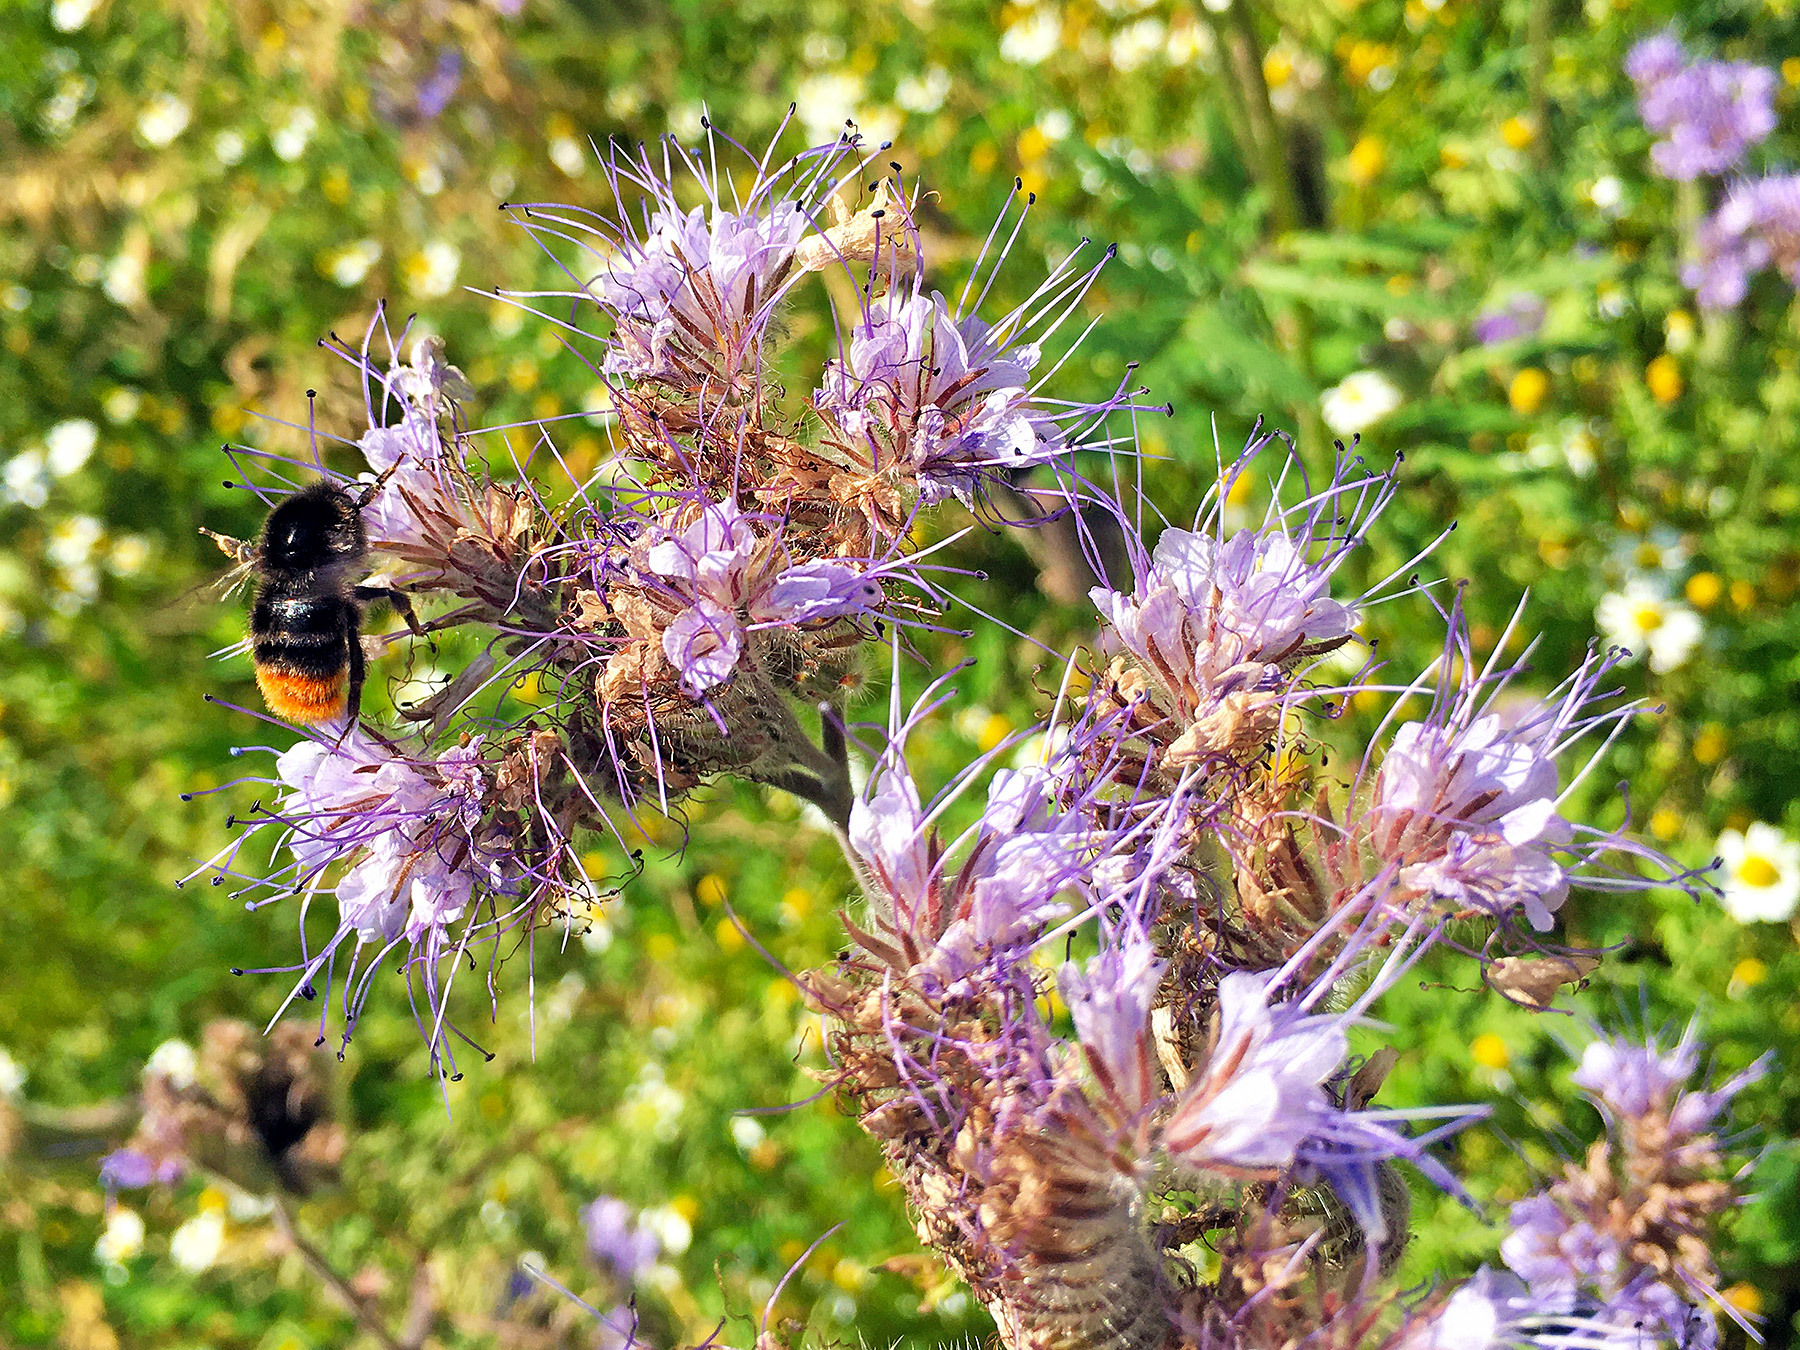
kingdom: Animalia
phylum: Arthropoda
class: Insecta
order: Hymenoptera
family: Apidae
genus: Bombus
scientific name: Bombus lapidarius
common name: Large red-tailed humble-bee
